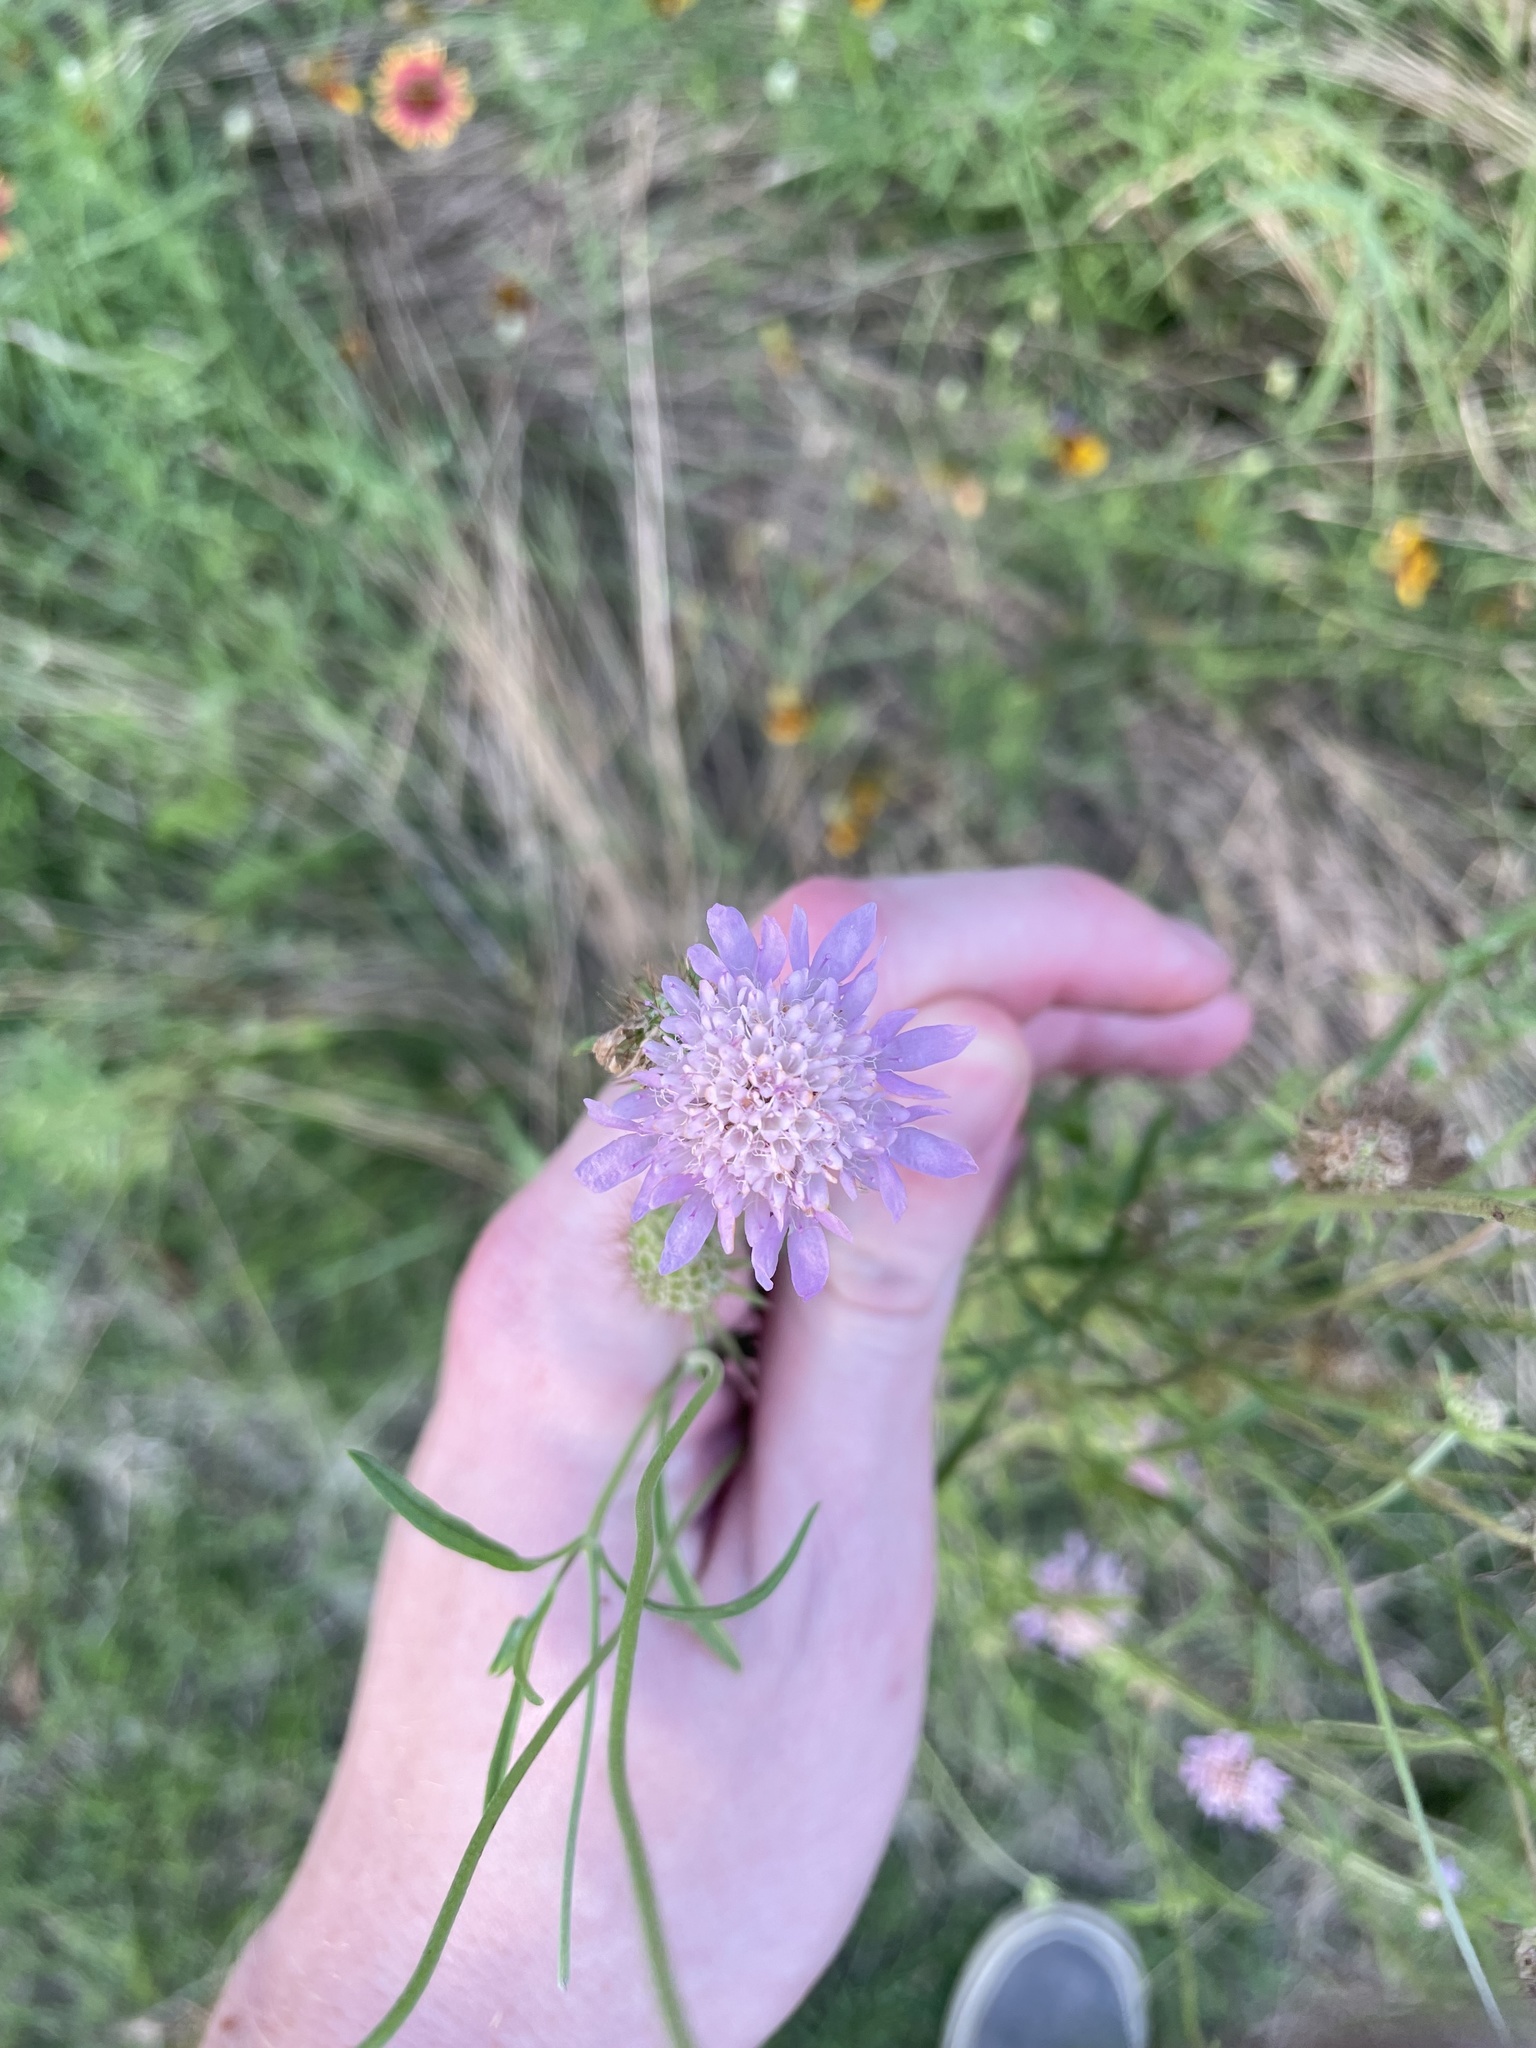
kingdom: Plantae
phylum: Tracheophyta
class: Magnoliopsida
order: Dipsacales
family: Caprifoliaceae
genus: Sixalix
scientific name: Sixalix atropurpurea
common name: Sweet scabious
